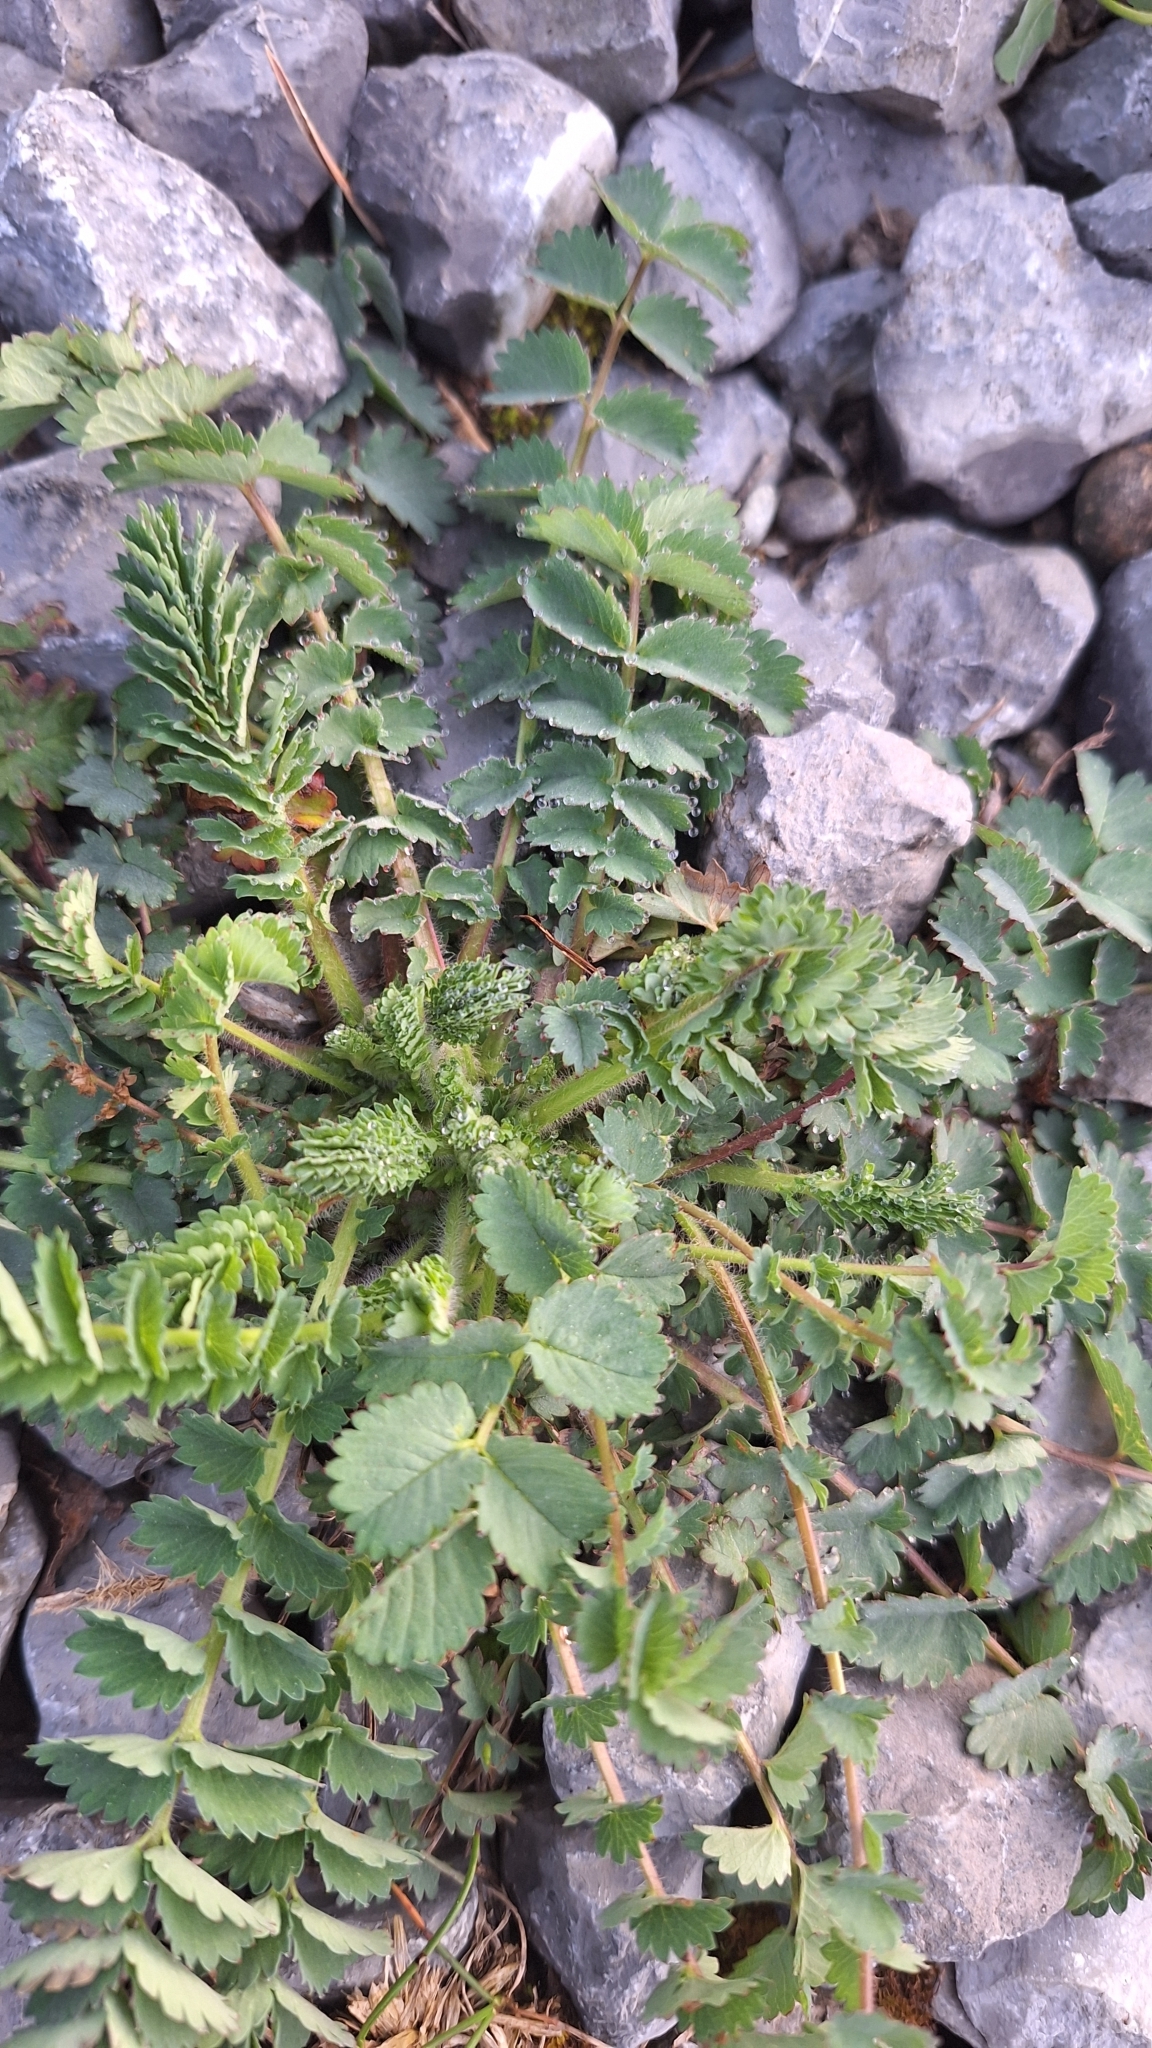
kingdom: Plantae
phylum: Tracheophyta
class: Magnoliopsida
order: Rosales
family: Rosaceae
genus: Poterium
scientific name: Poterium sanguisorba
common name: Salad burnet
